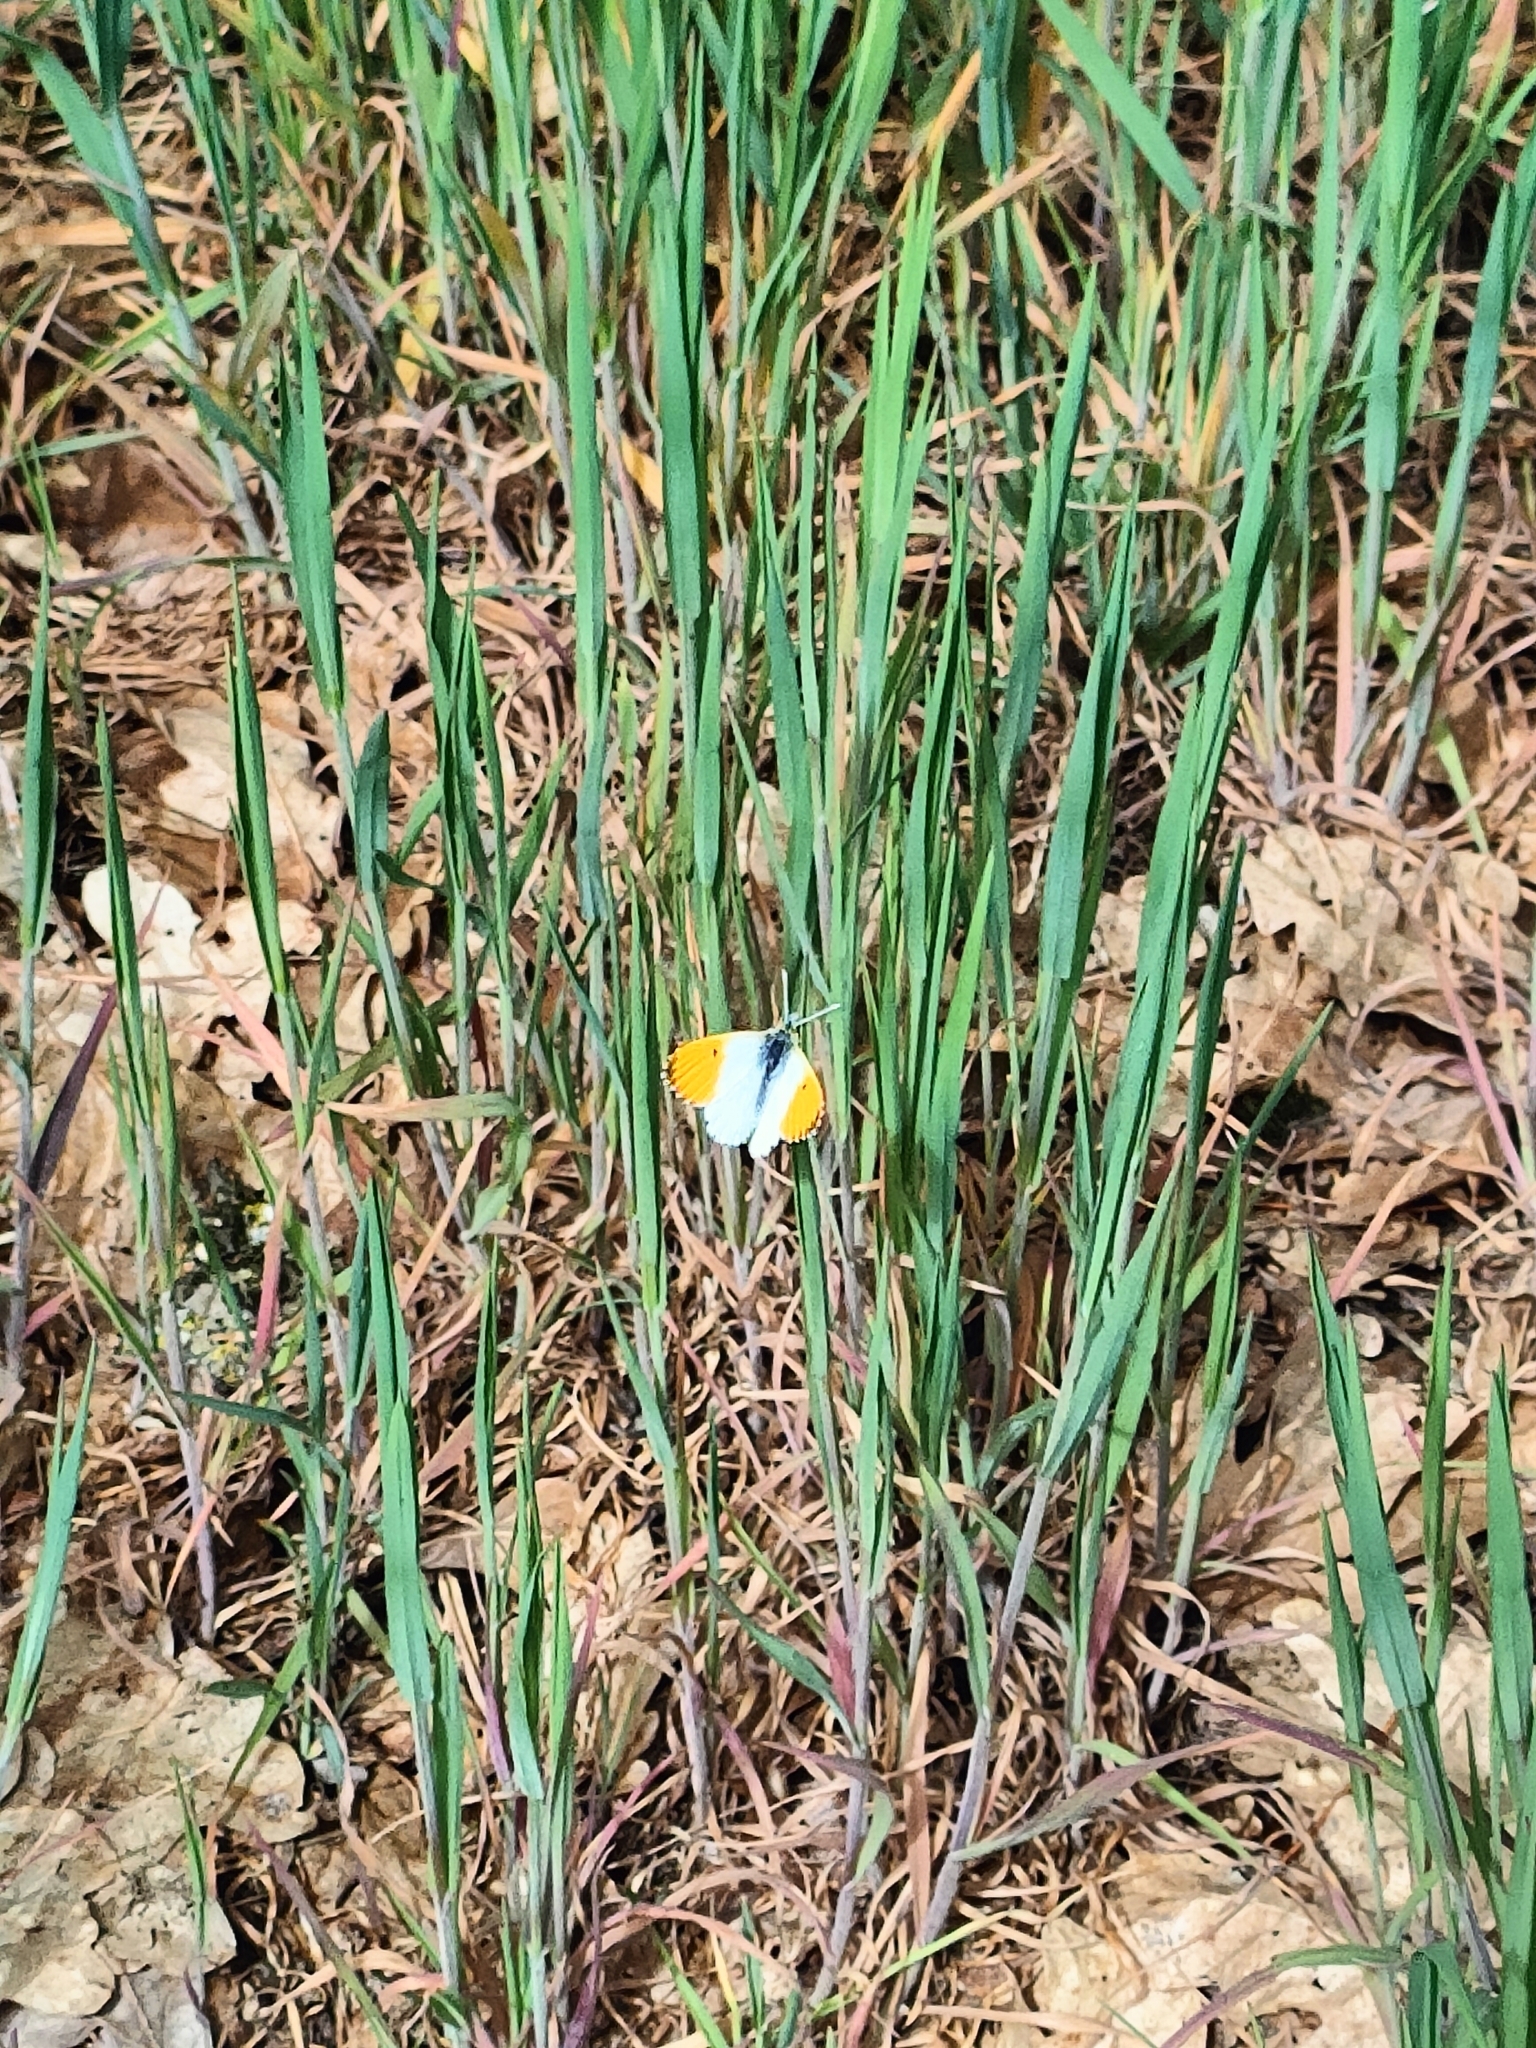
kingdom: Animalia
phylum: Arthropoda
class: Insecta
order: Lepidoptera
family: Pieridae
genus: Anthocharis
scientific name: Anthocharis cardamines
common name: Orange-tip
